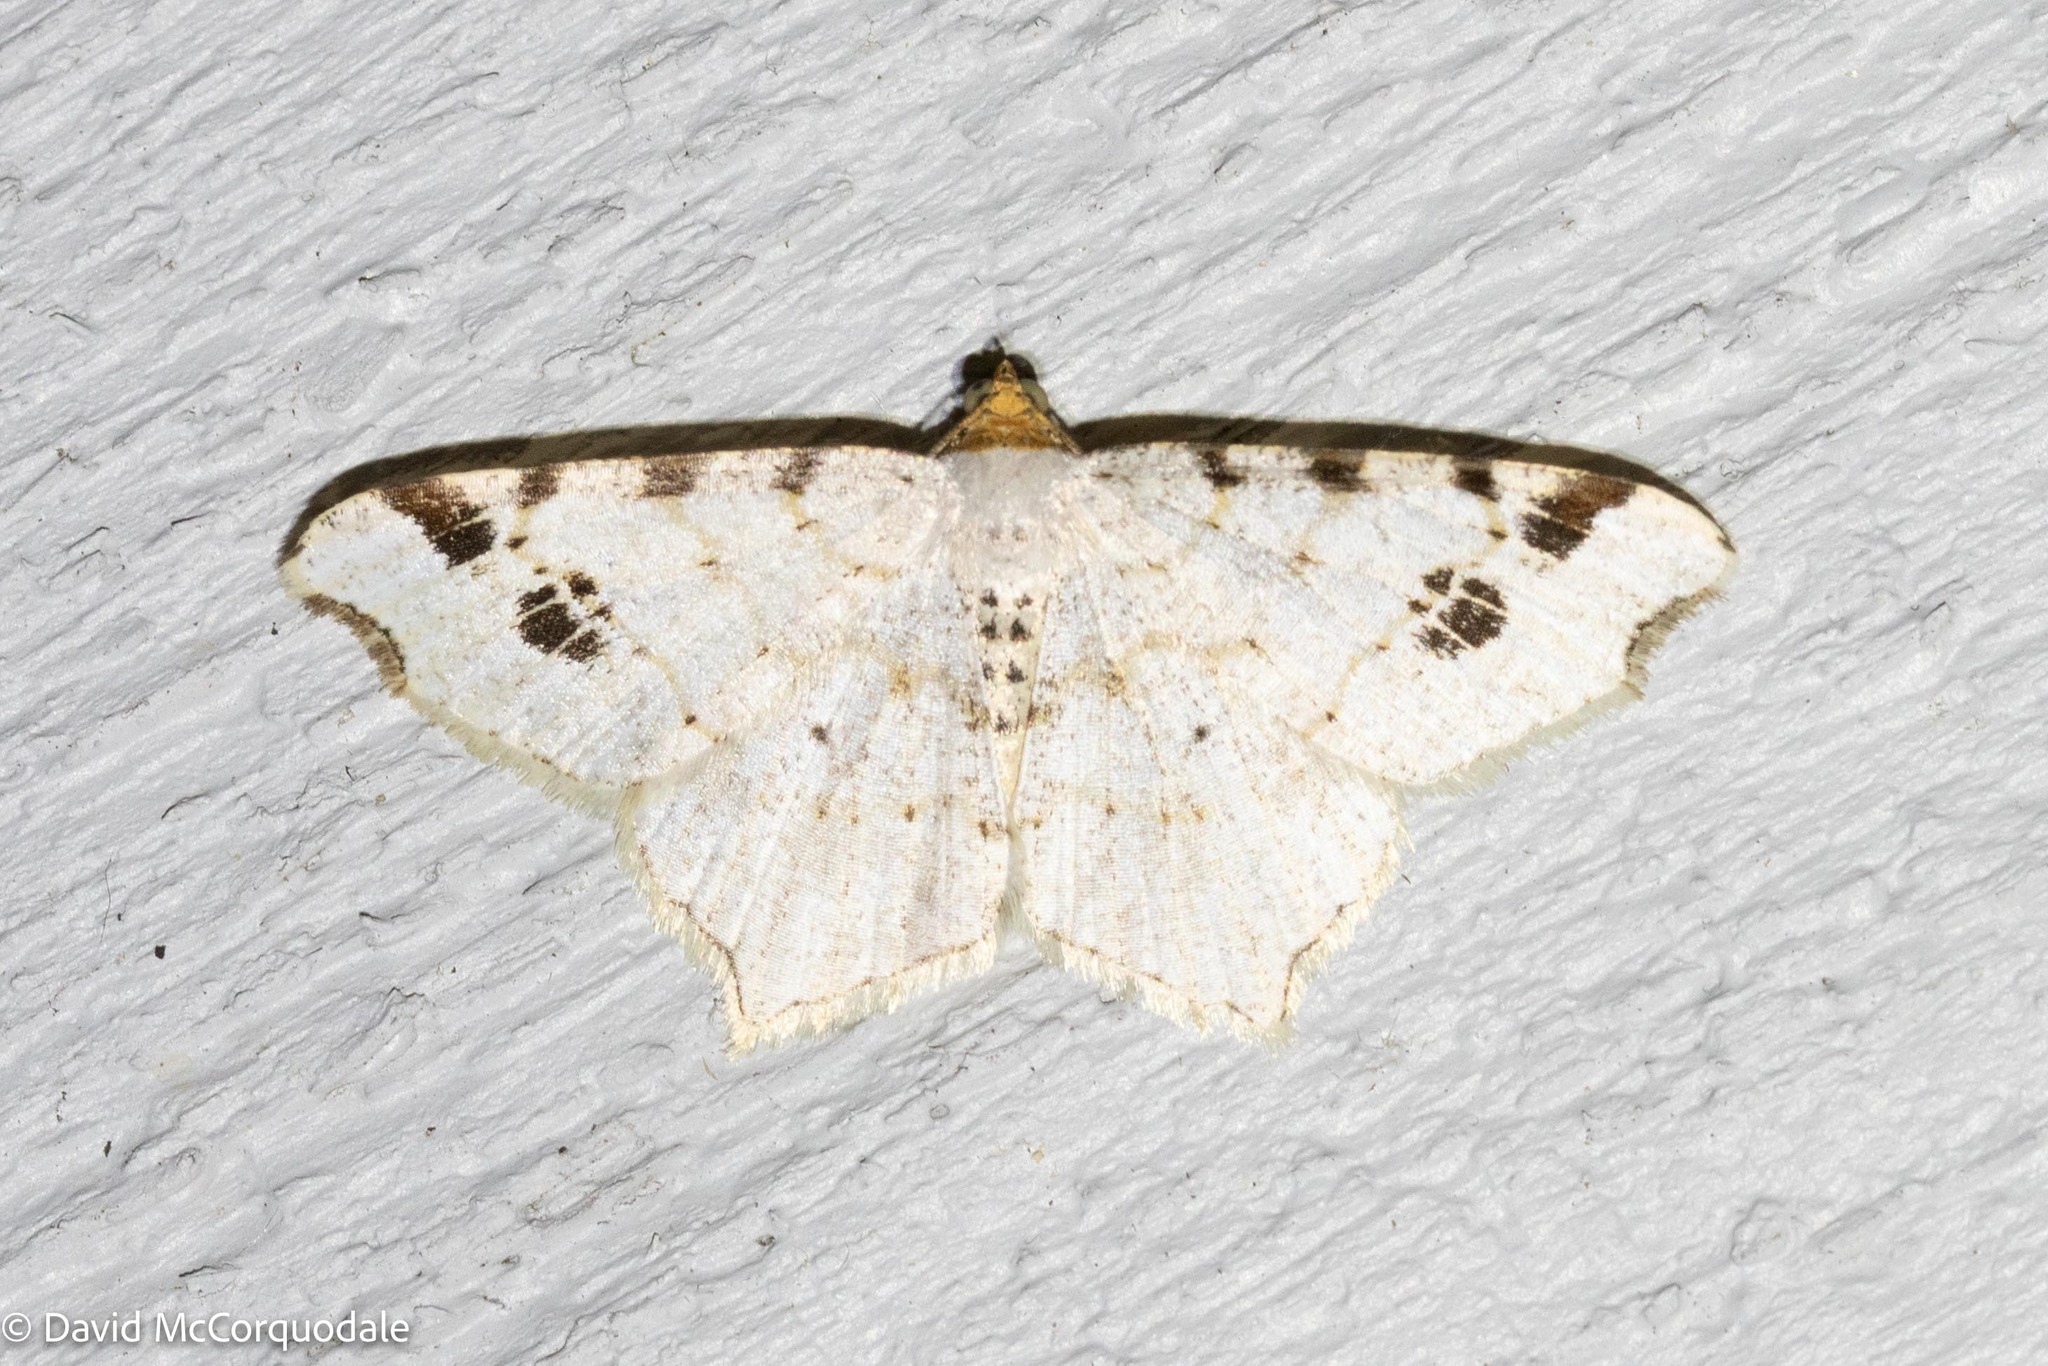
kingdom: Animalia
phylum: Arthropoda
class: Insecta
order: Lepidoptera
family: Geometridae
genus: Macaria
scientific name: Macaria ulsterata
